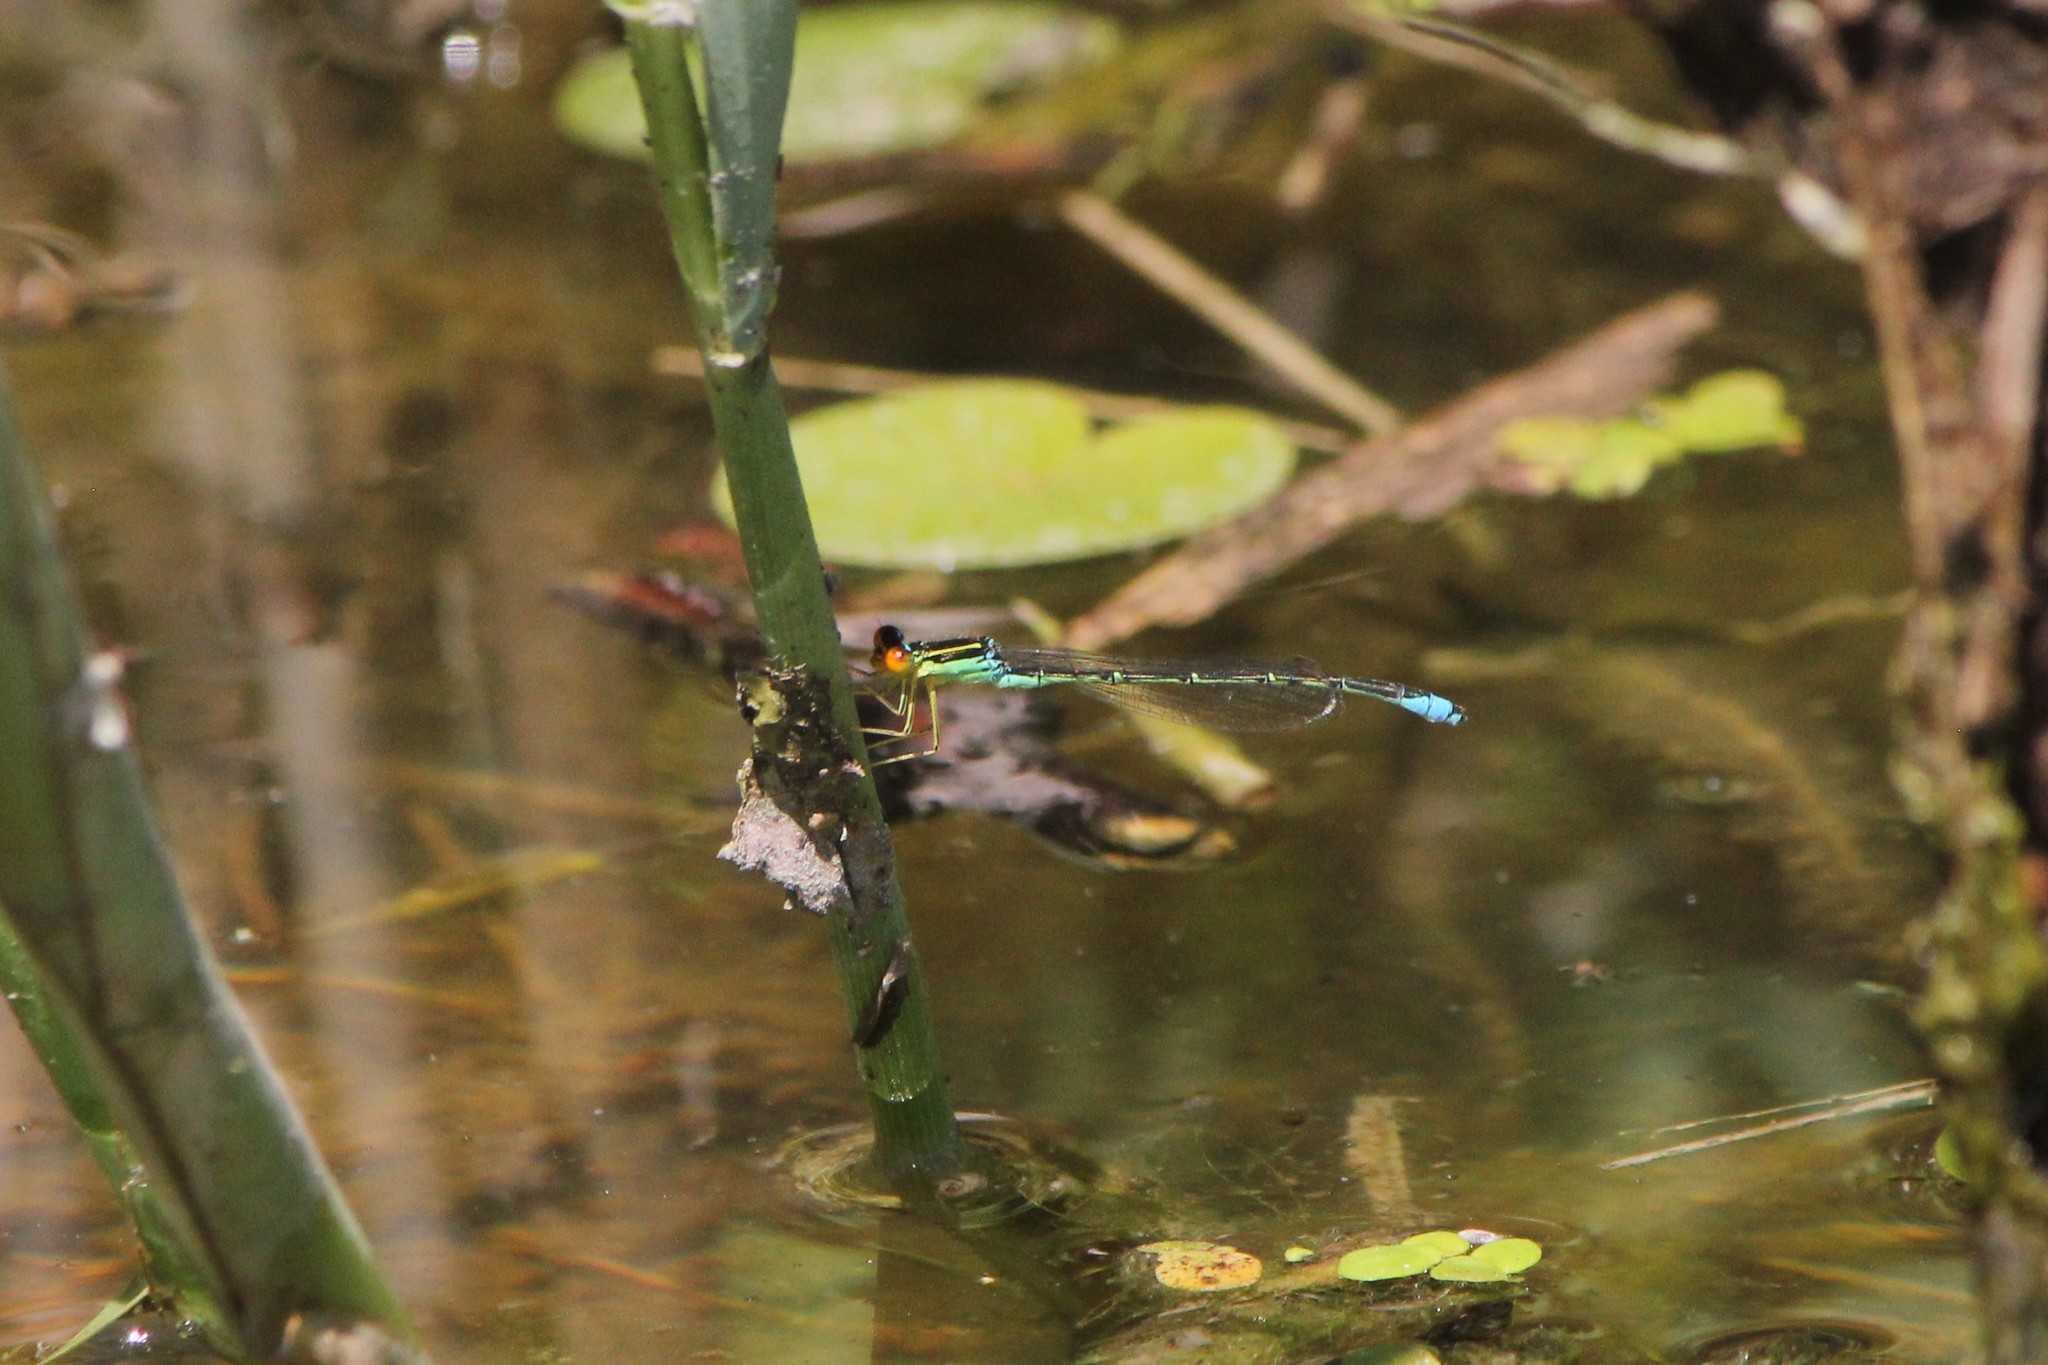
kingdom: Animalia
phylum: Arthropoda
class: Insecta
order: Odonata
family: Coenagrionidae
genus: Enallagma
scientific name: Enallagma antennatum
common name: Rainbow bluet
